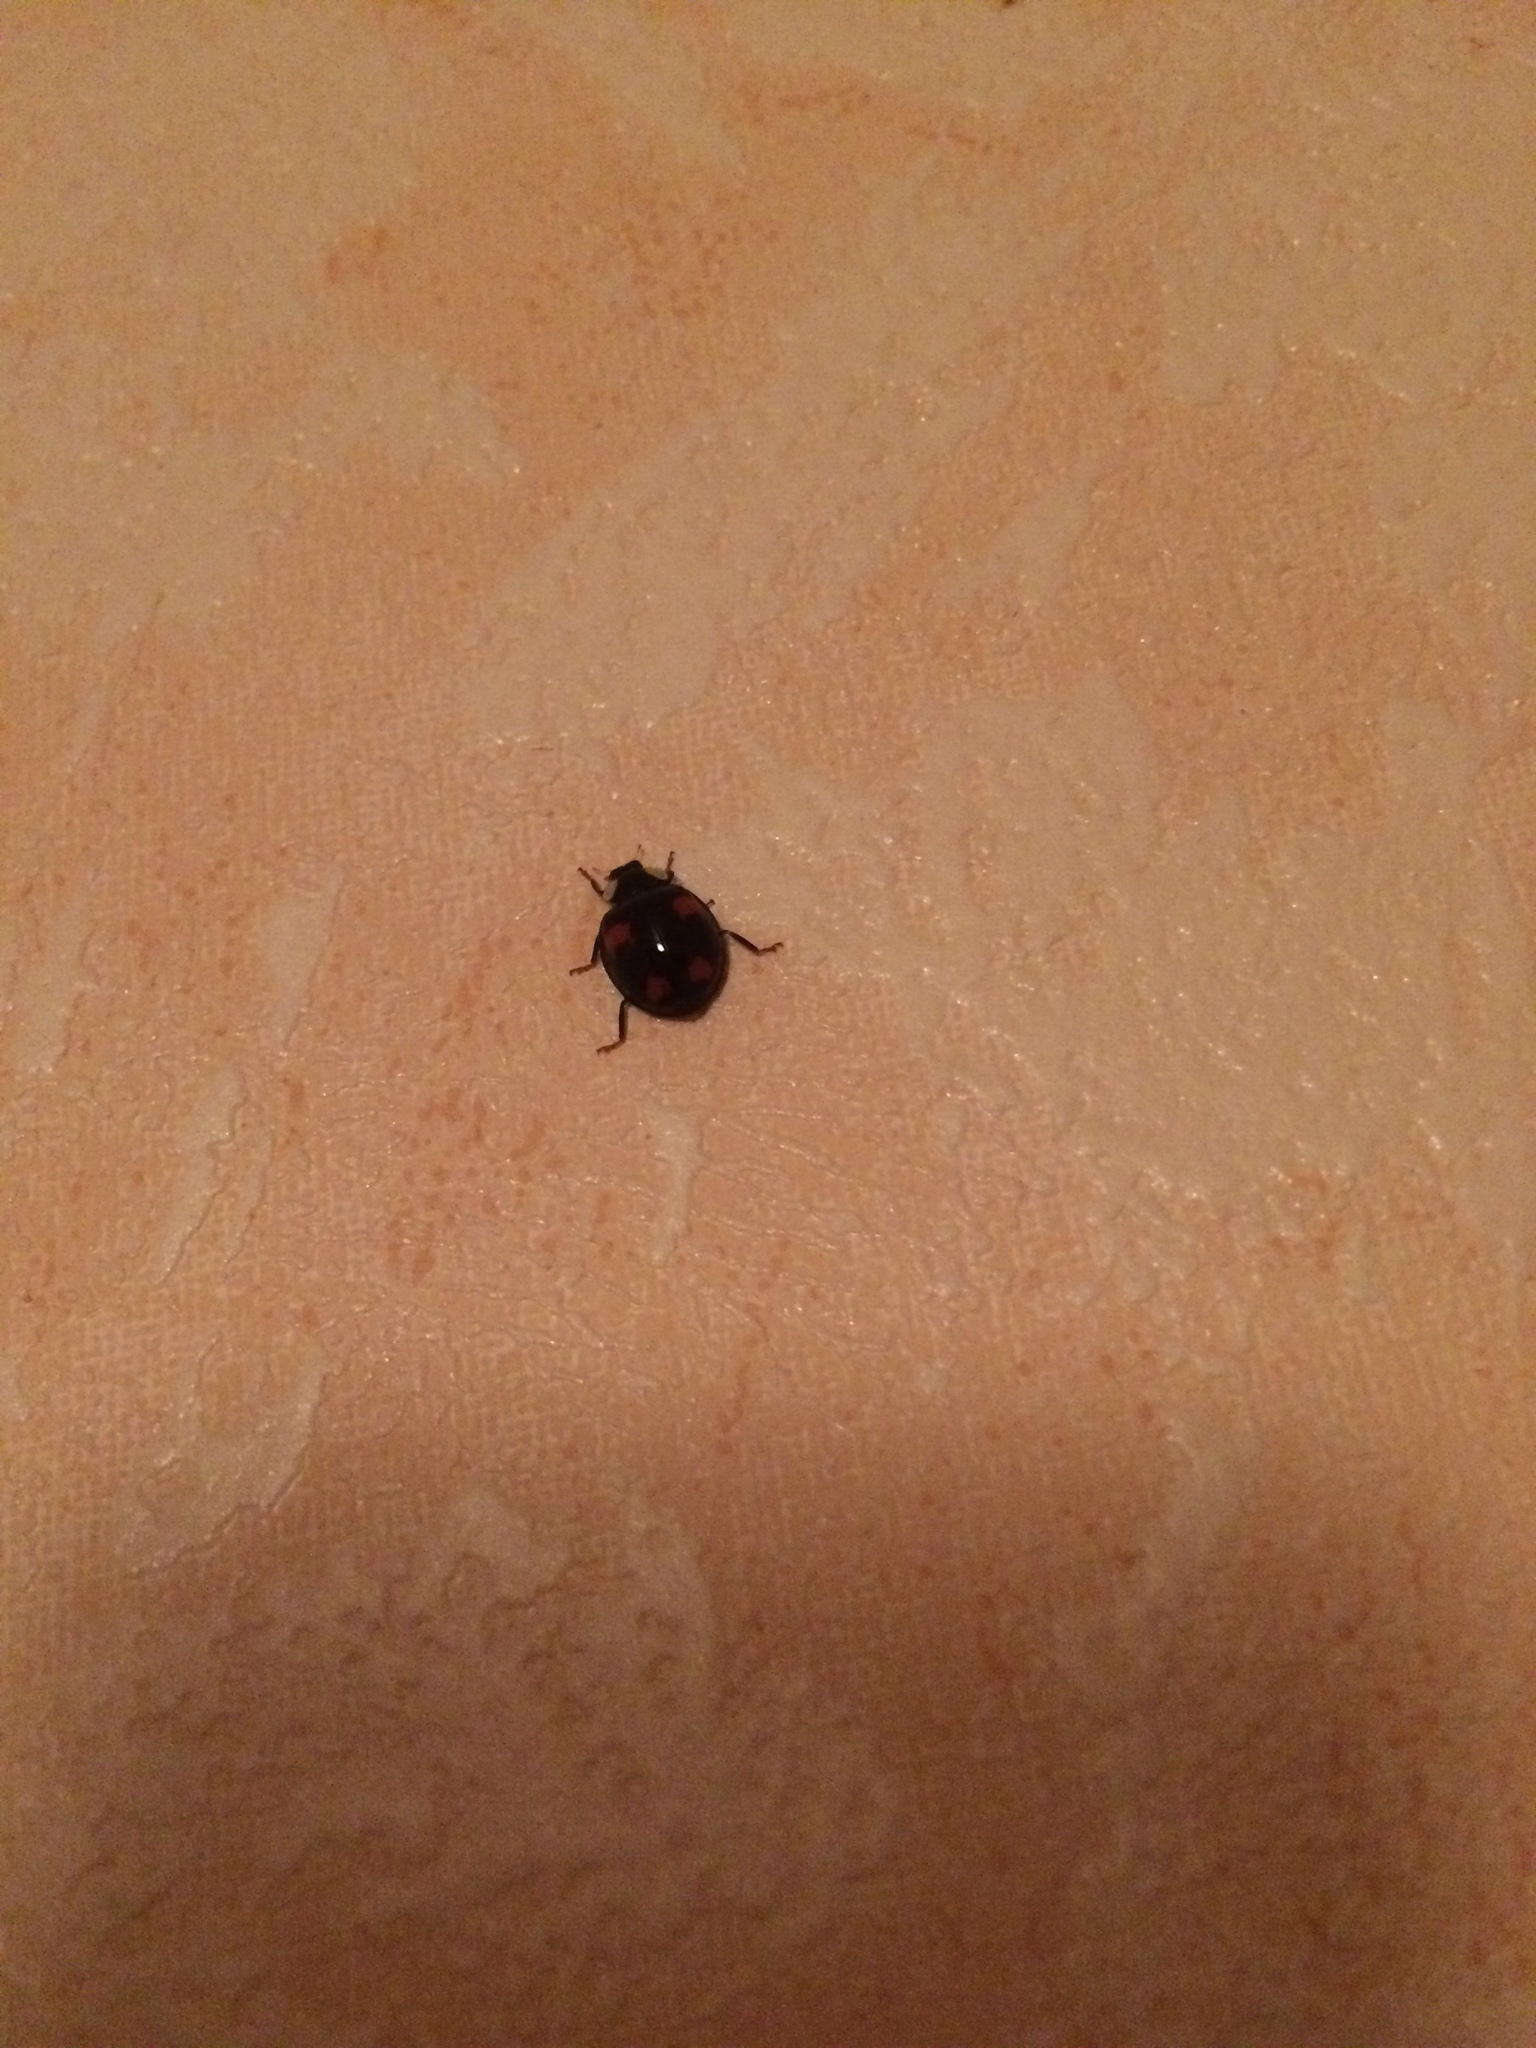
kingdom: Animalia
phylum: Arthropoda
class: Insecta
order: Coleoptera
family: Coccinellidae
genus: Harmonia
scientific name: Harmonia axyridis
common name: Harlequin ladybird
